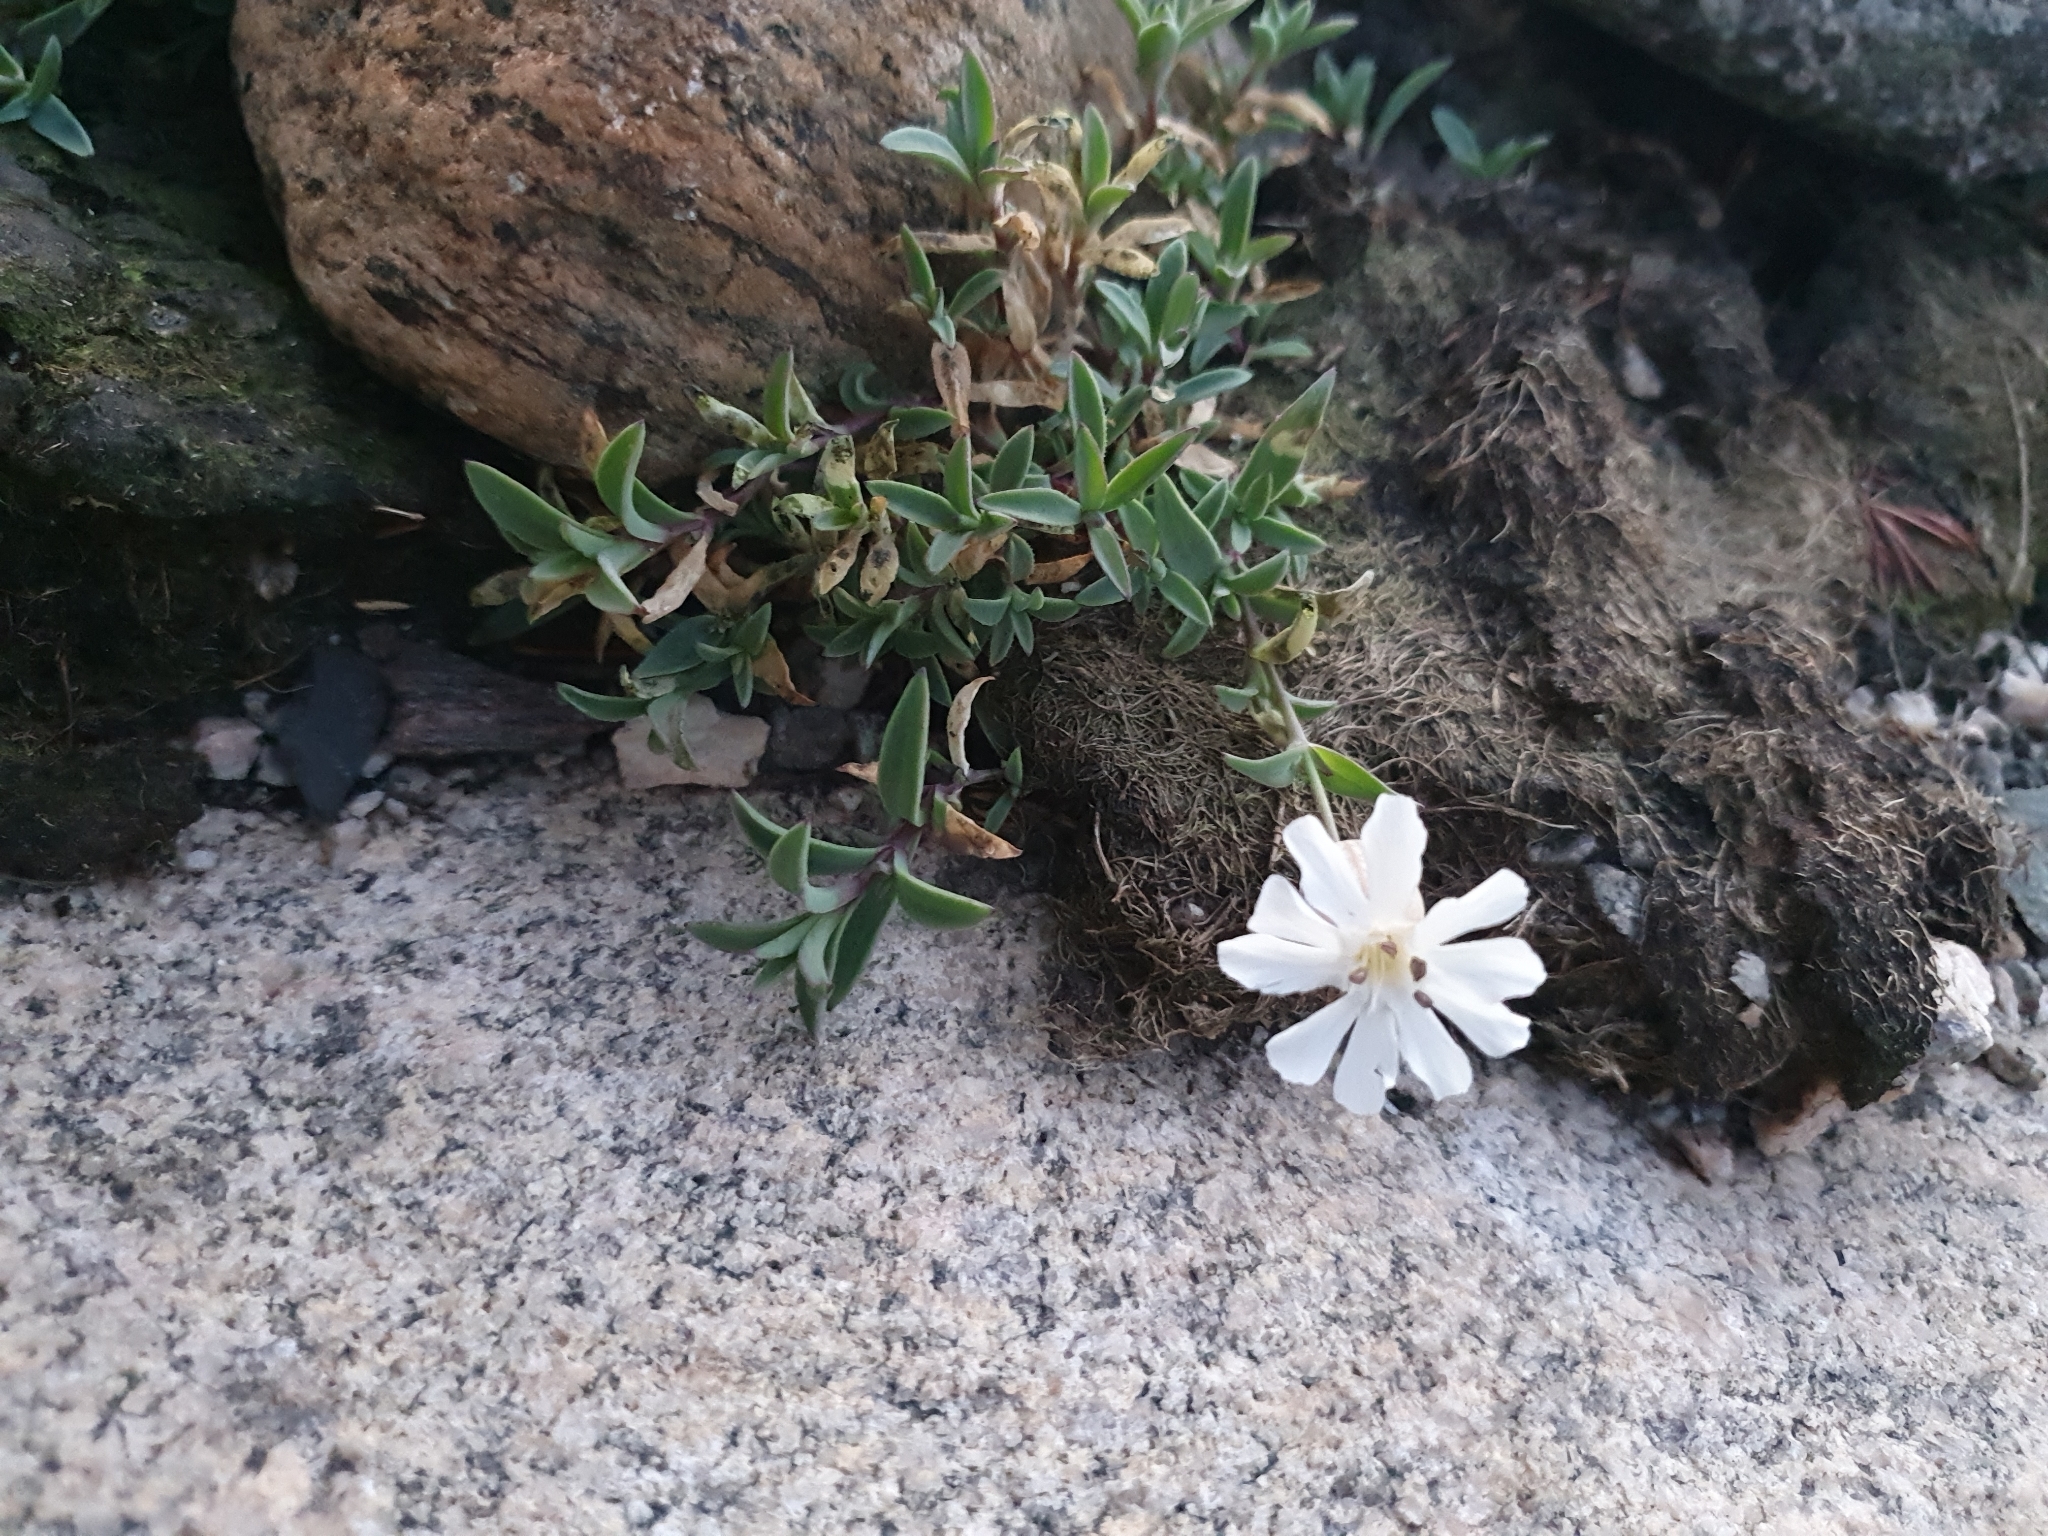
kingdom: Plantae
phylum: Tracheophyta
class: Magnoliopsida
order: Caryophyllales
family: Caryophyllaceae
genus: Silene
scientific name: Silene uniflora
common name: Sea campion
